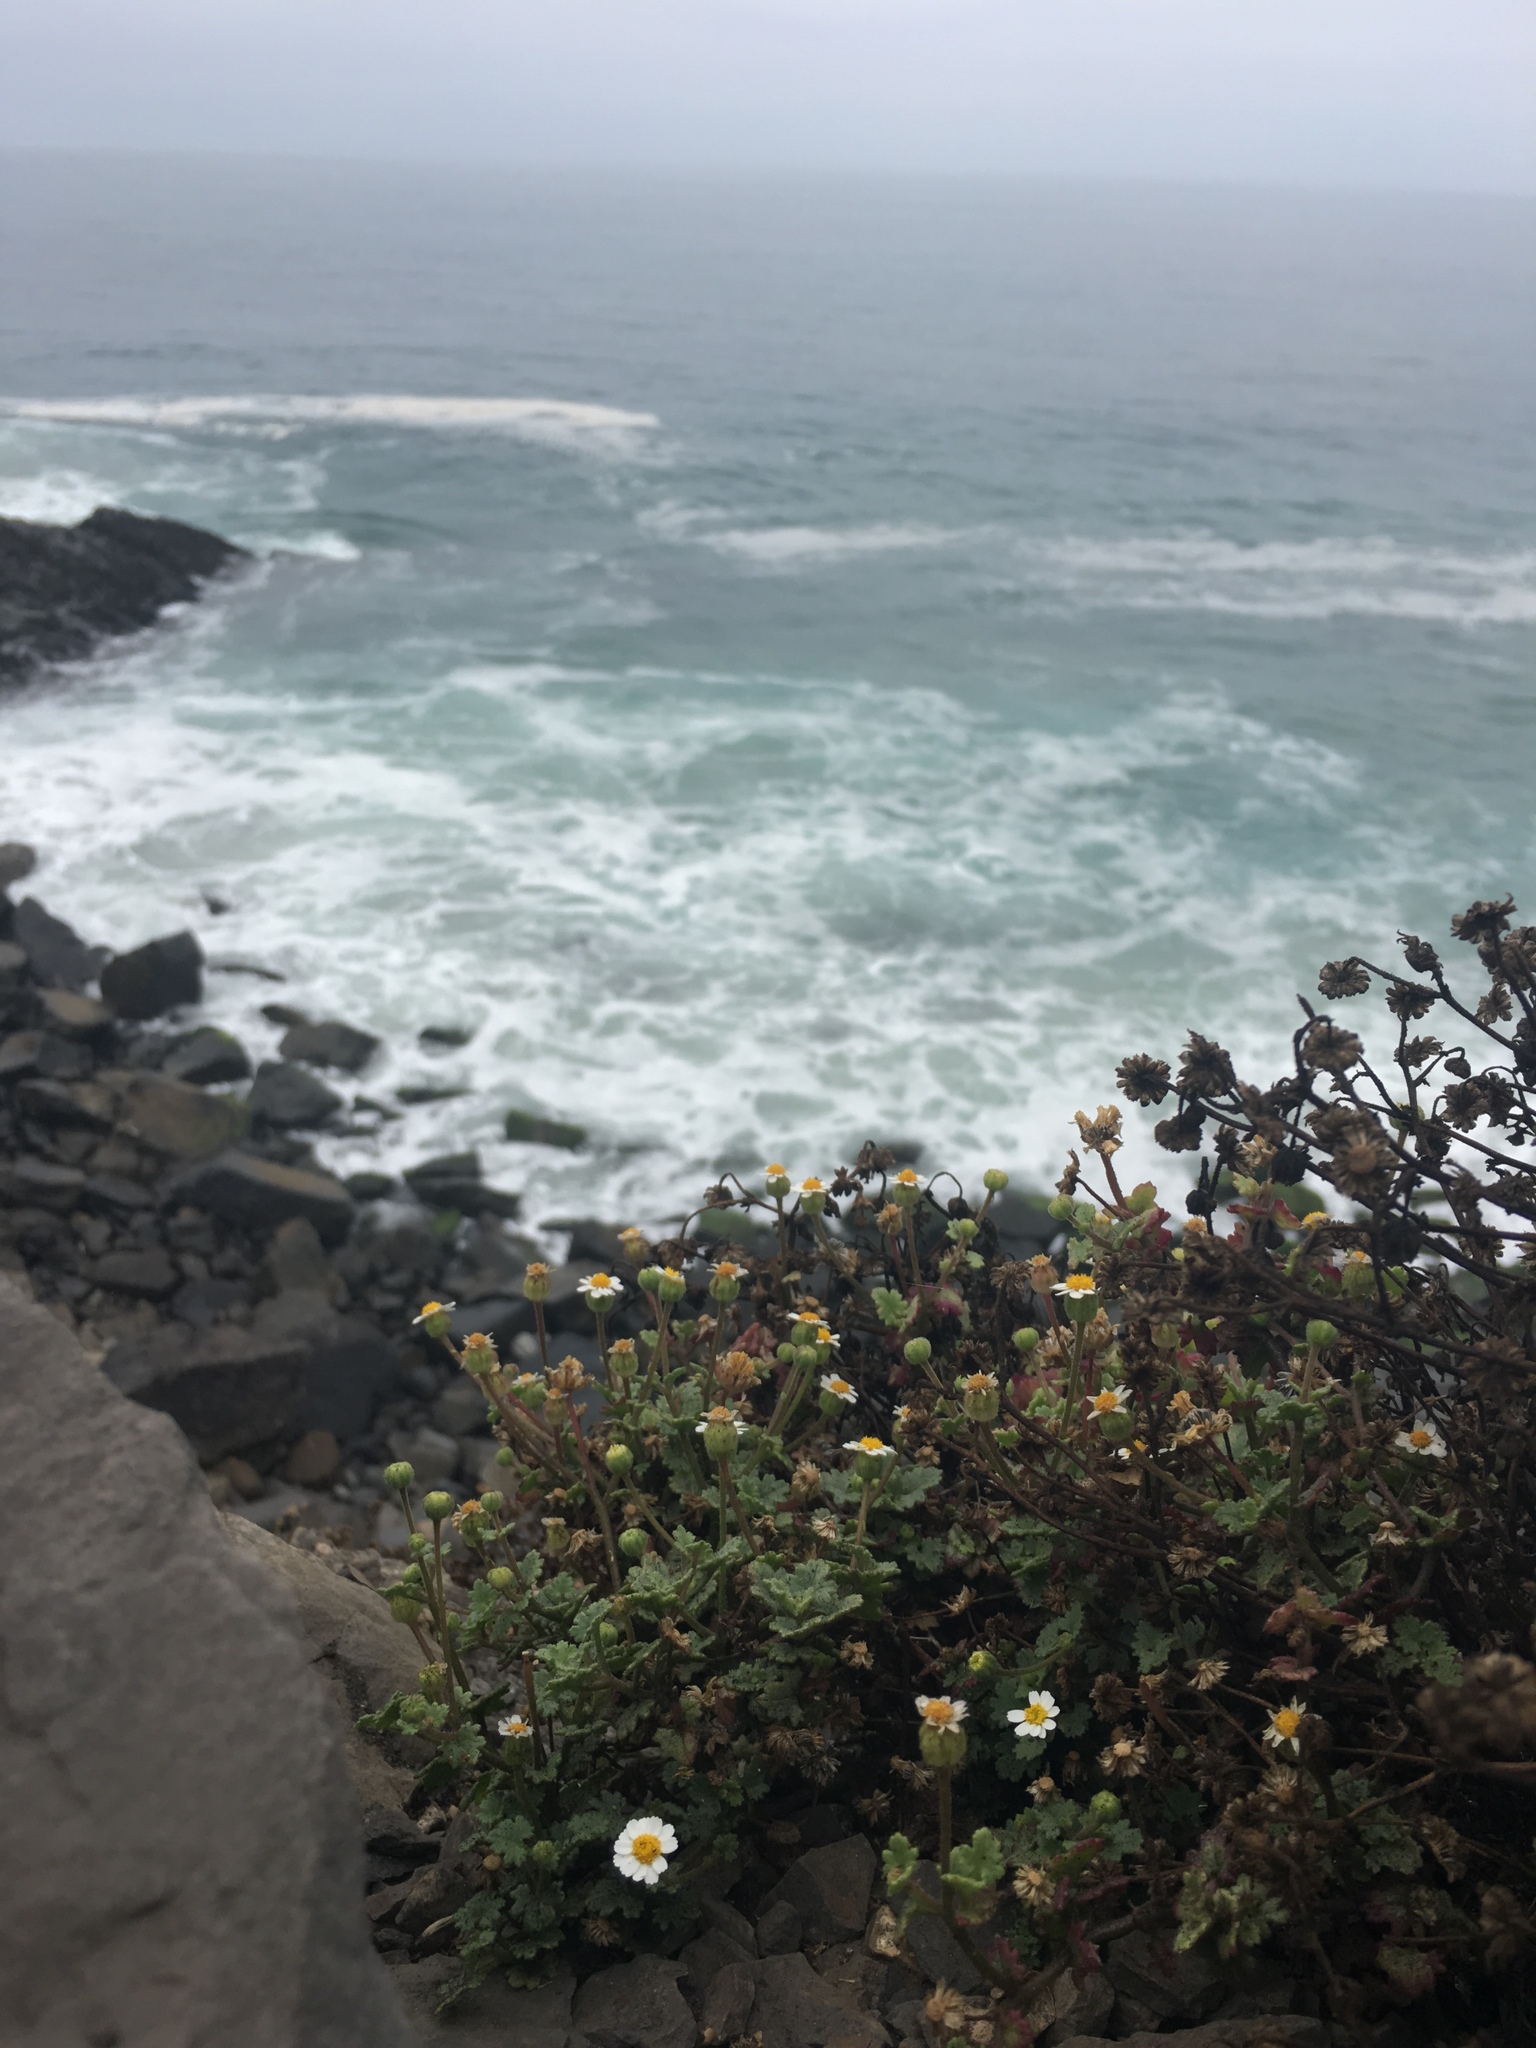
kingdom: Plantae
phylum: Tracheophyta
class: Magnoliopsida
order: Asterales
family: Asteraceae
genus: Laphamia
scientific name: Laphamia emoryi
